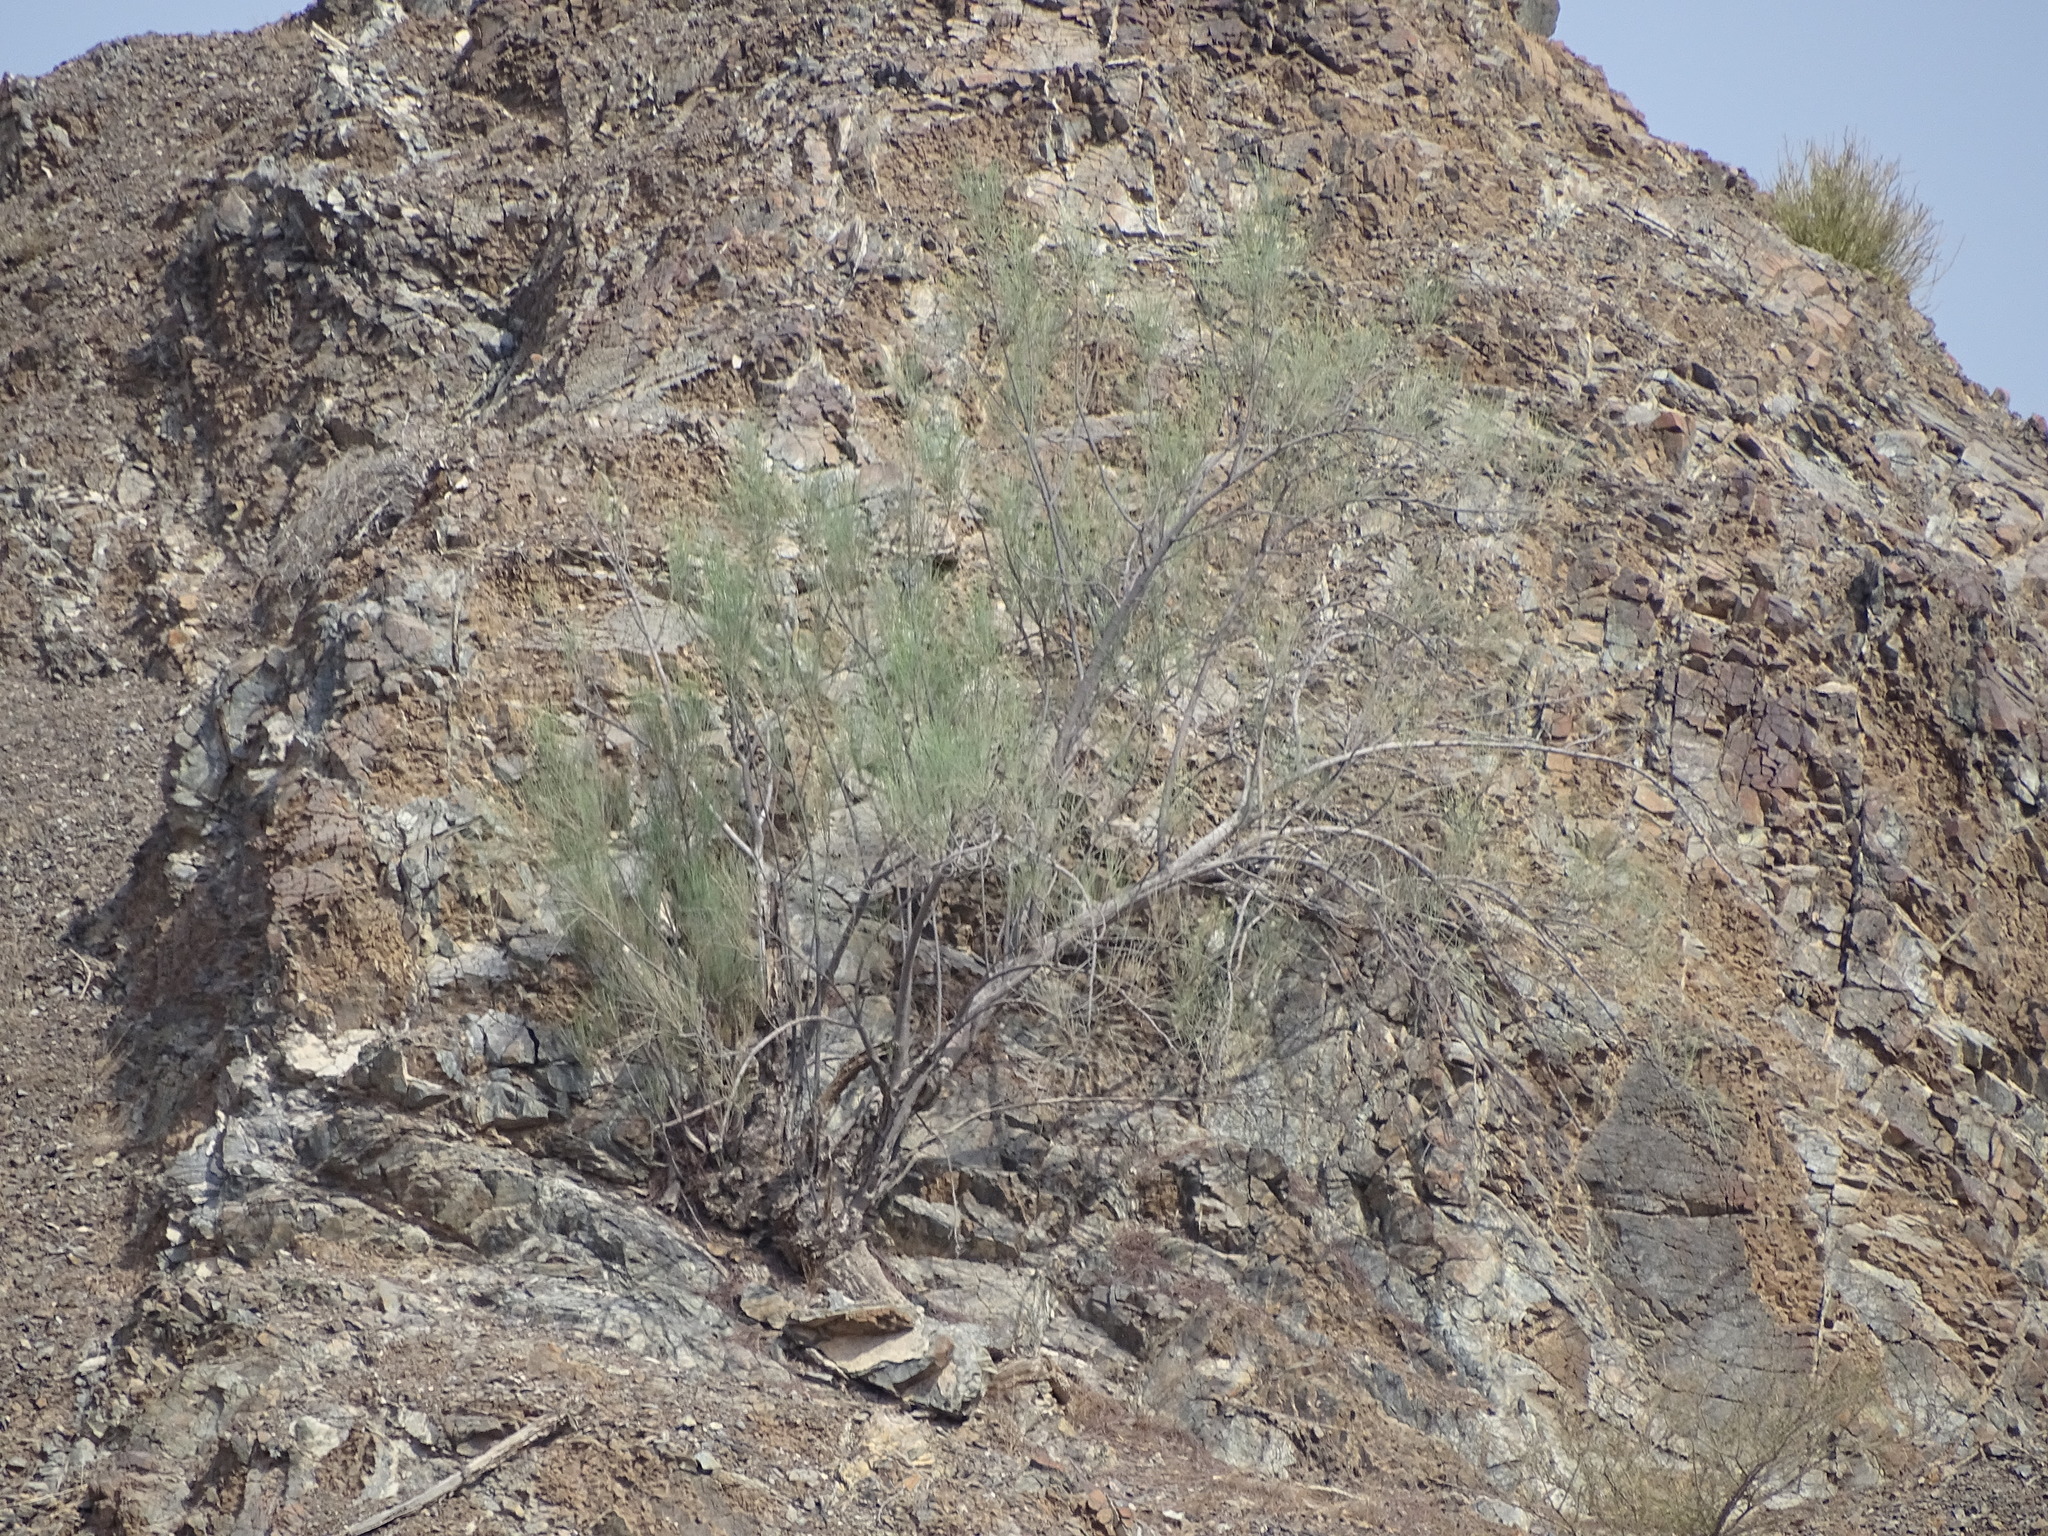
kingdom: Plantae
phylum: Tracheophyta
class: Magnoliopsida
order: Brassicales
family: Moringaceae
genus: Moringa
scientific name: Moringa peregrina
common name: Wild drumstick tree
